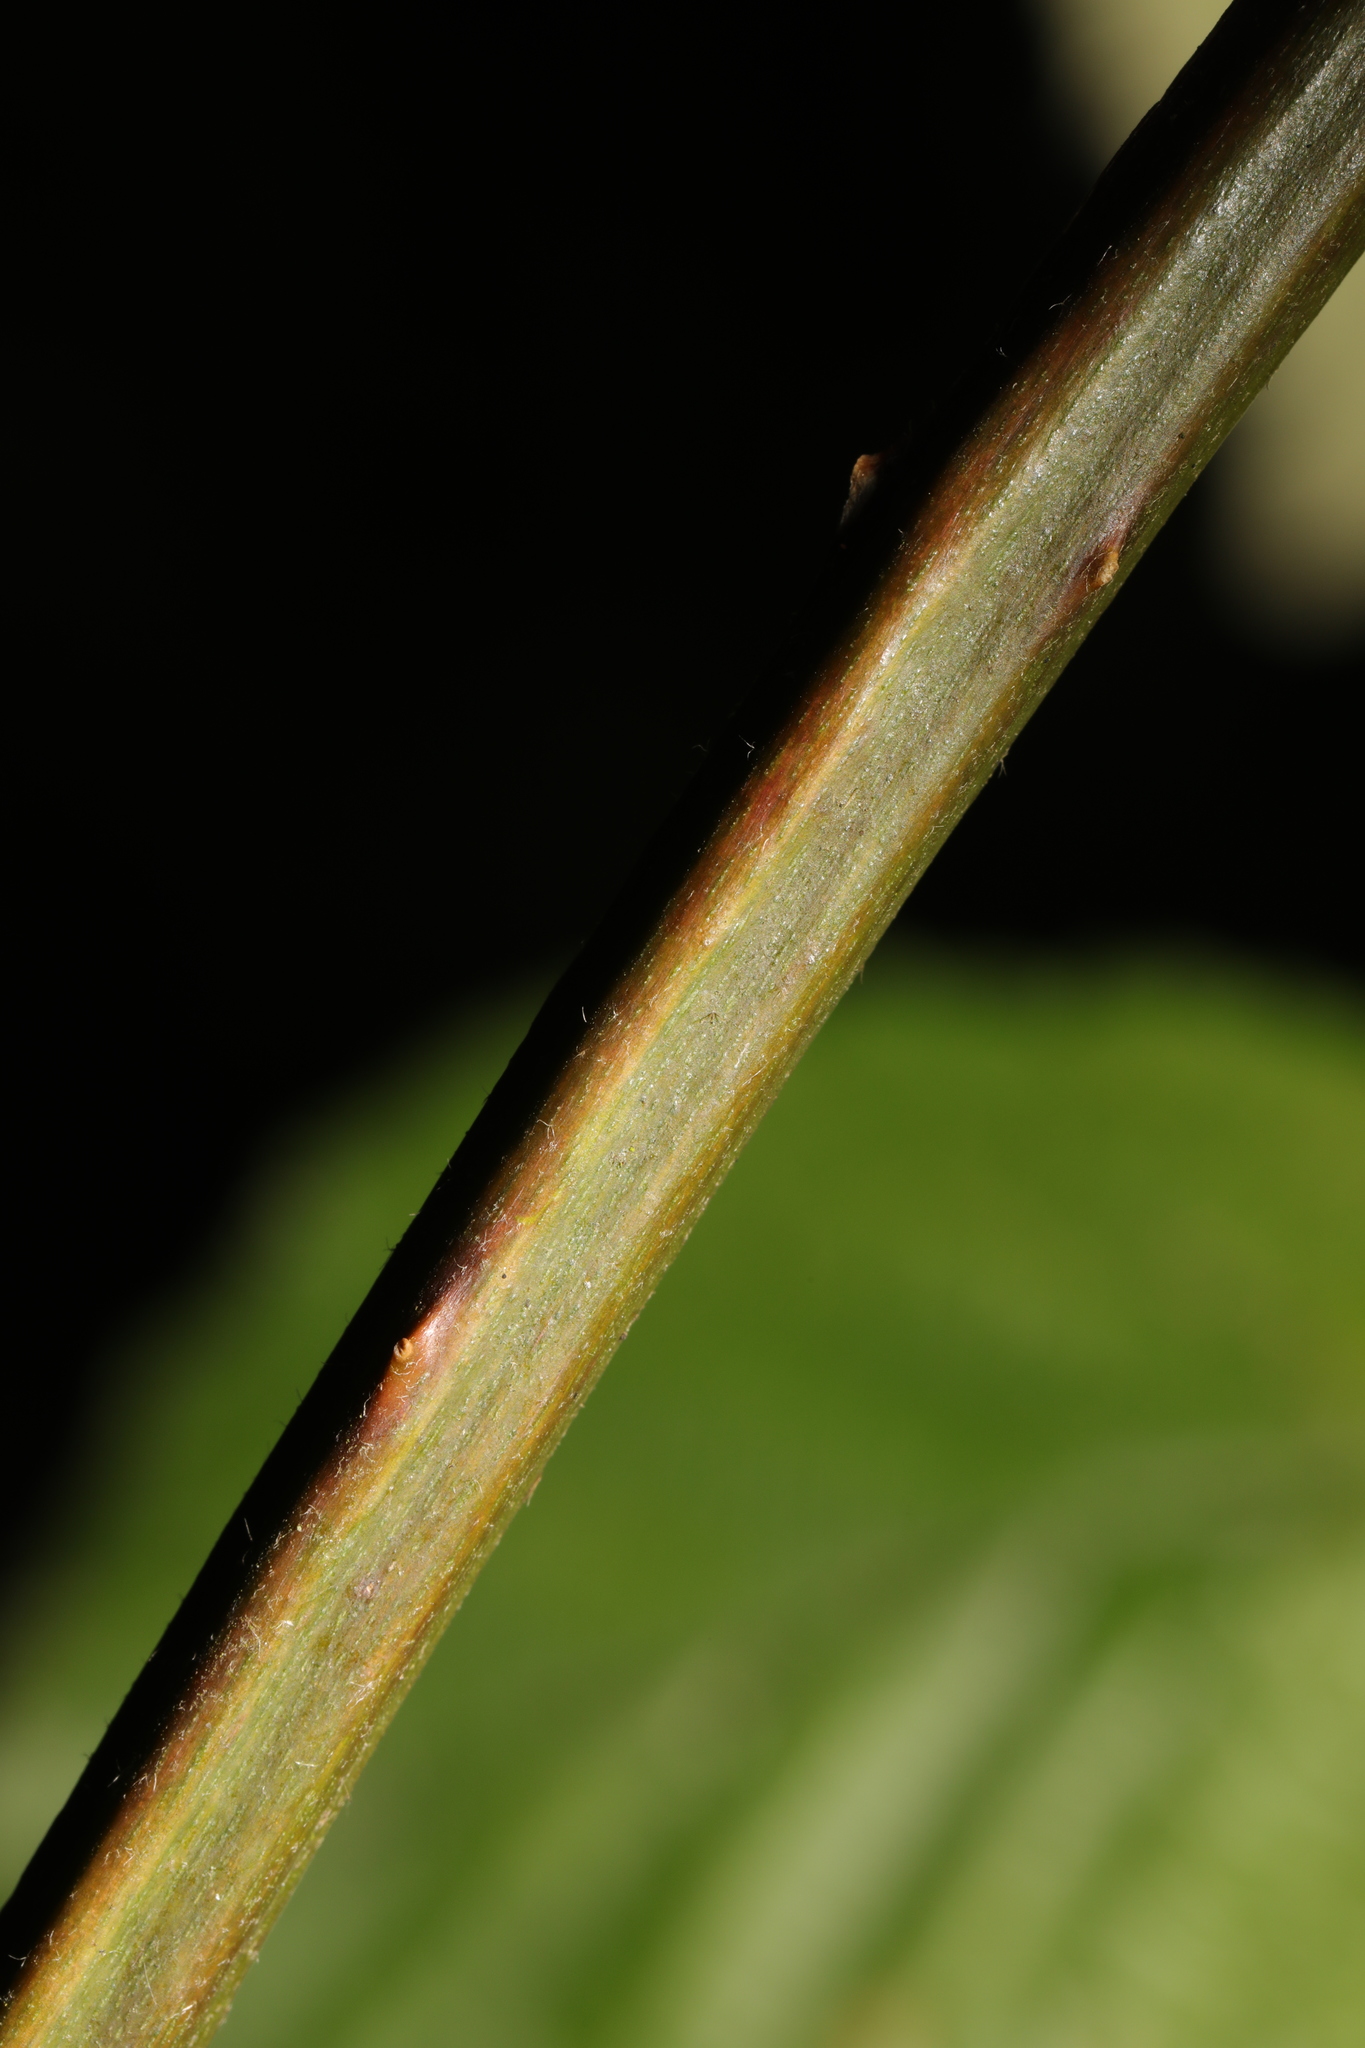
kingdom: Plantae
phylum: Tracheophyta
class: Magnoliopsida
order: Rosales
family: Rosaceae
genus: Rubus
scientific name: Rubus armeniacus
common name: Himalayan blackberry
